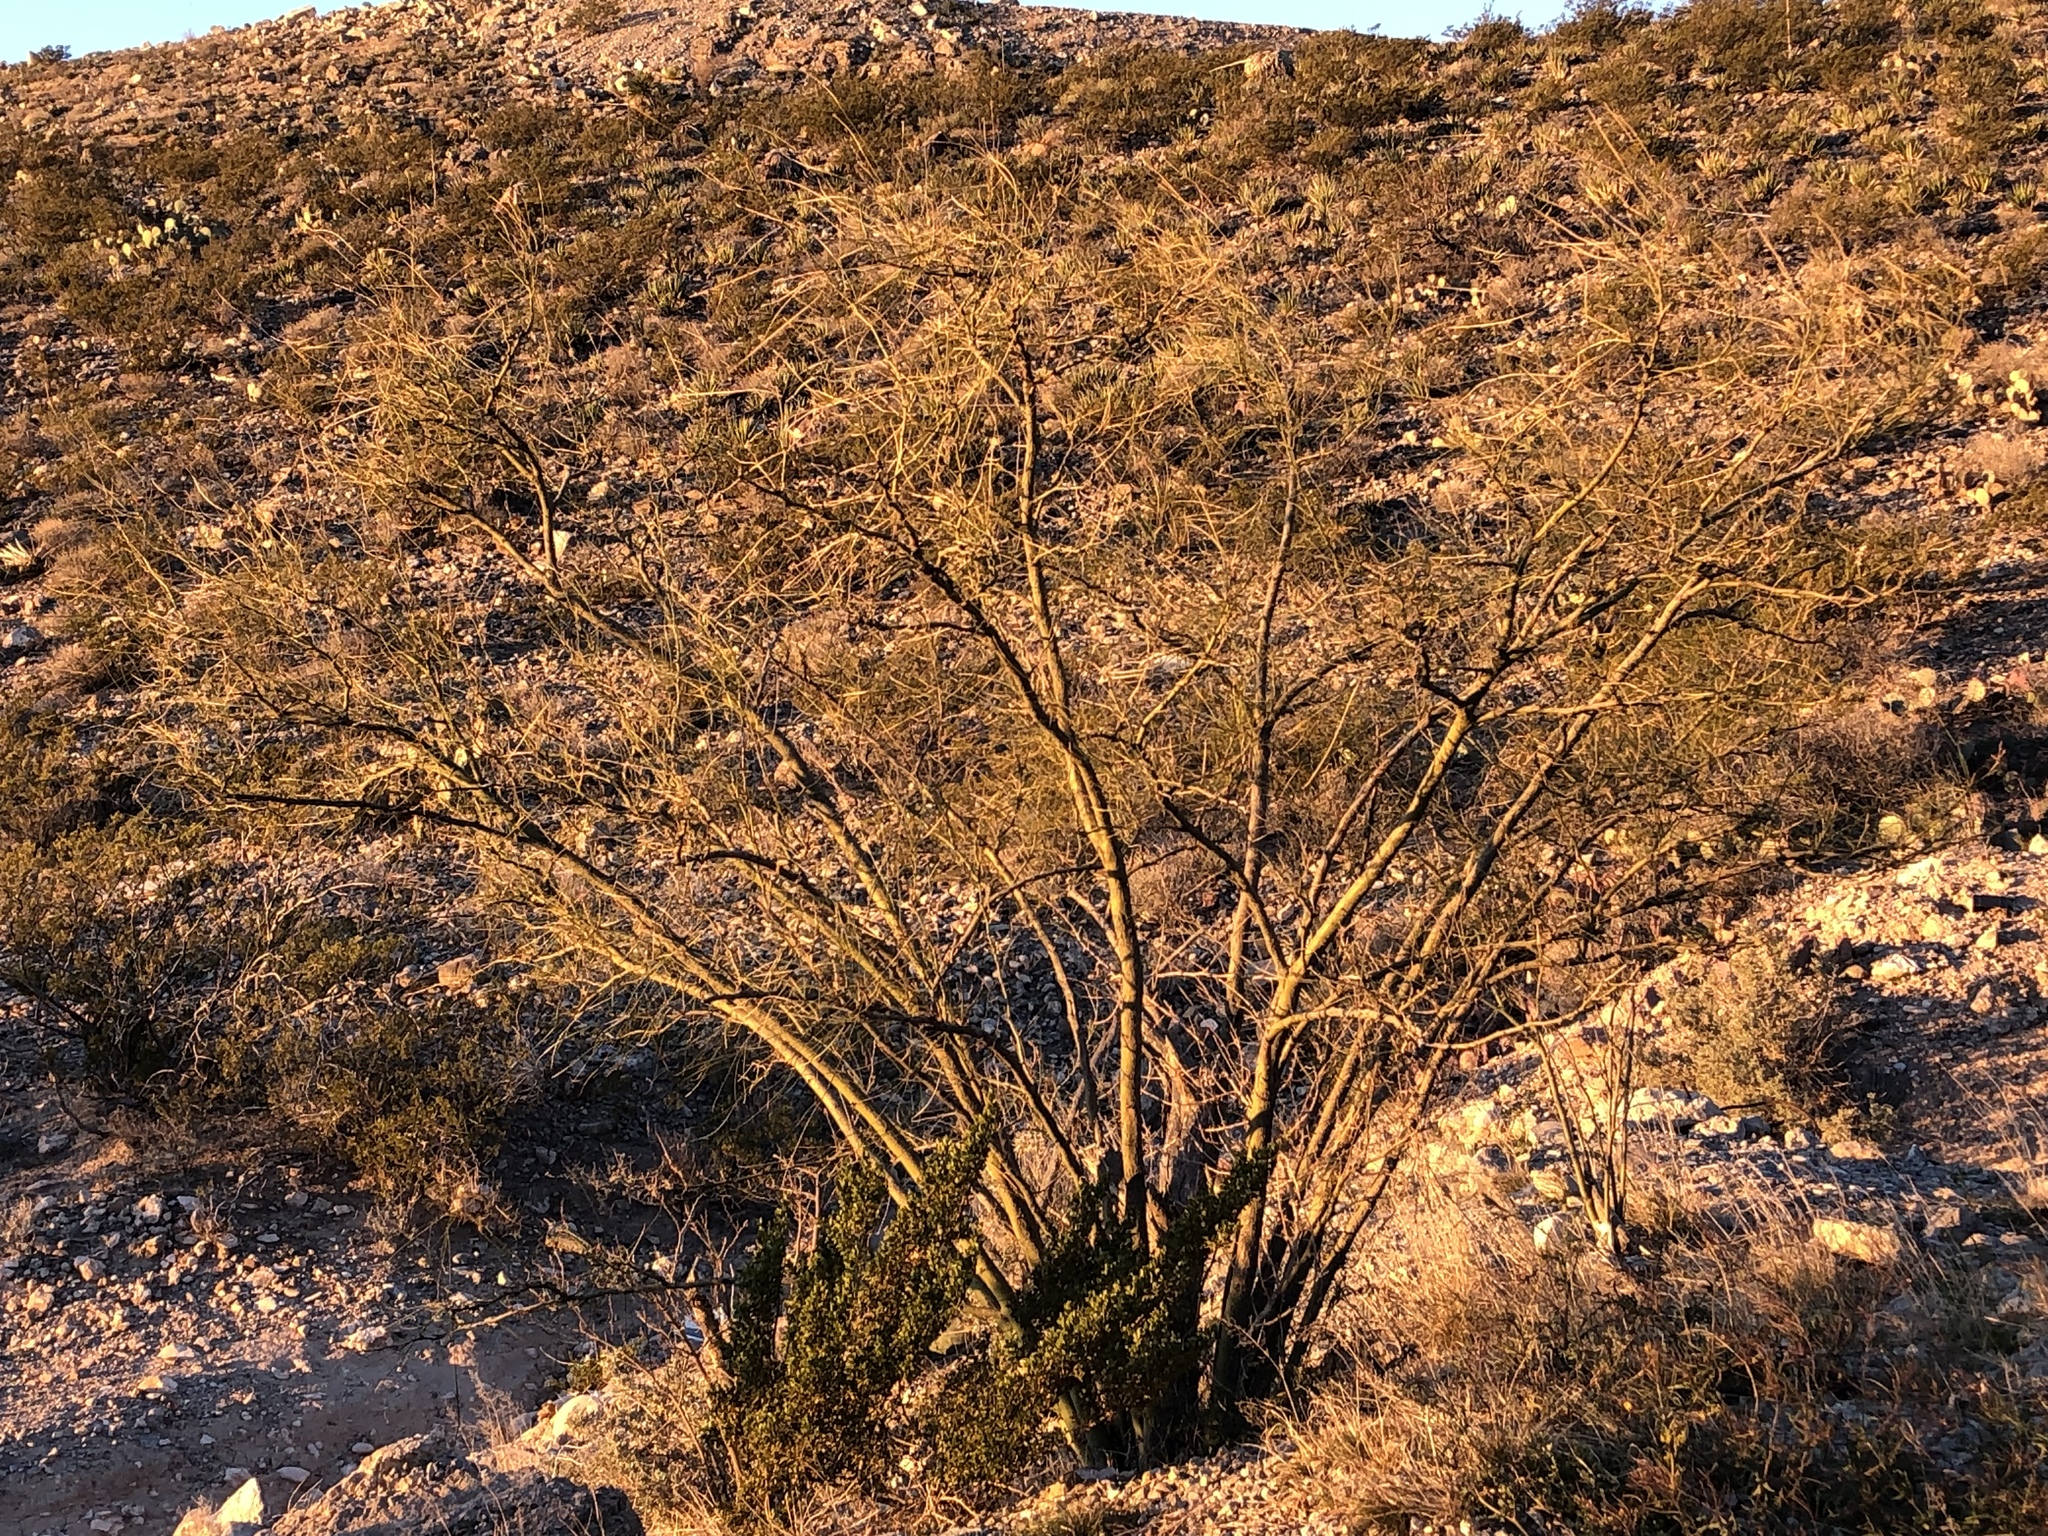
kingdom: Plantae
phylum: Tracheophyta
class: Magnoliopsida
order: Fabales
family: Fabaceae
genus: Parkinsonia
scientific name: Parkinsonia aculeata
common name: Jerusalem thorn
